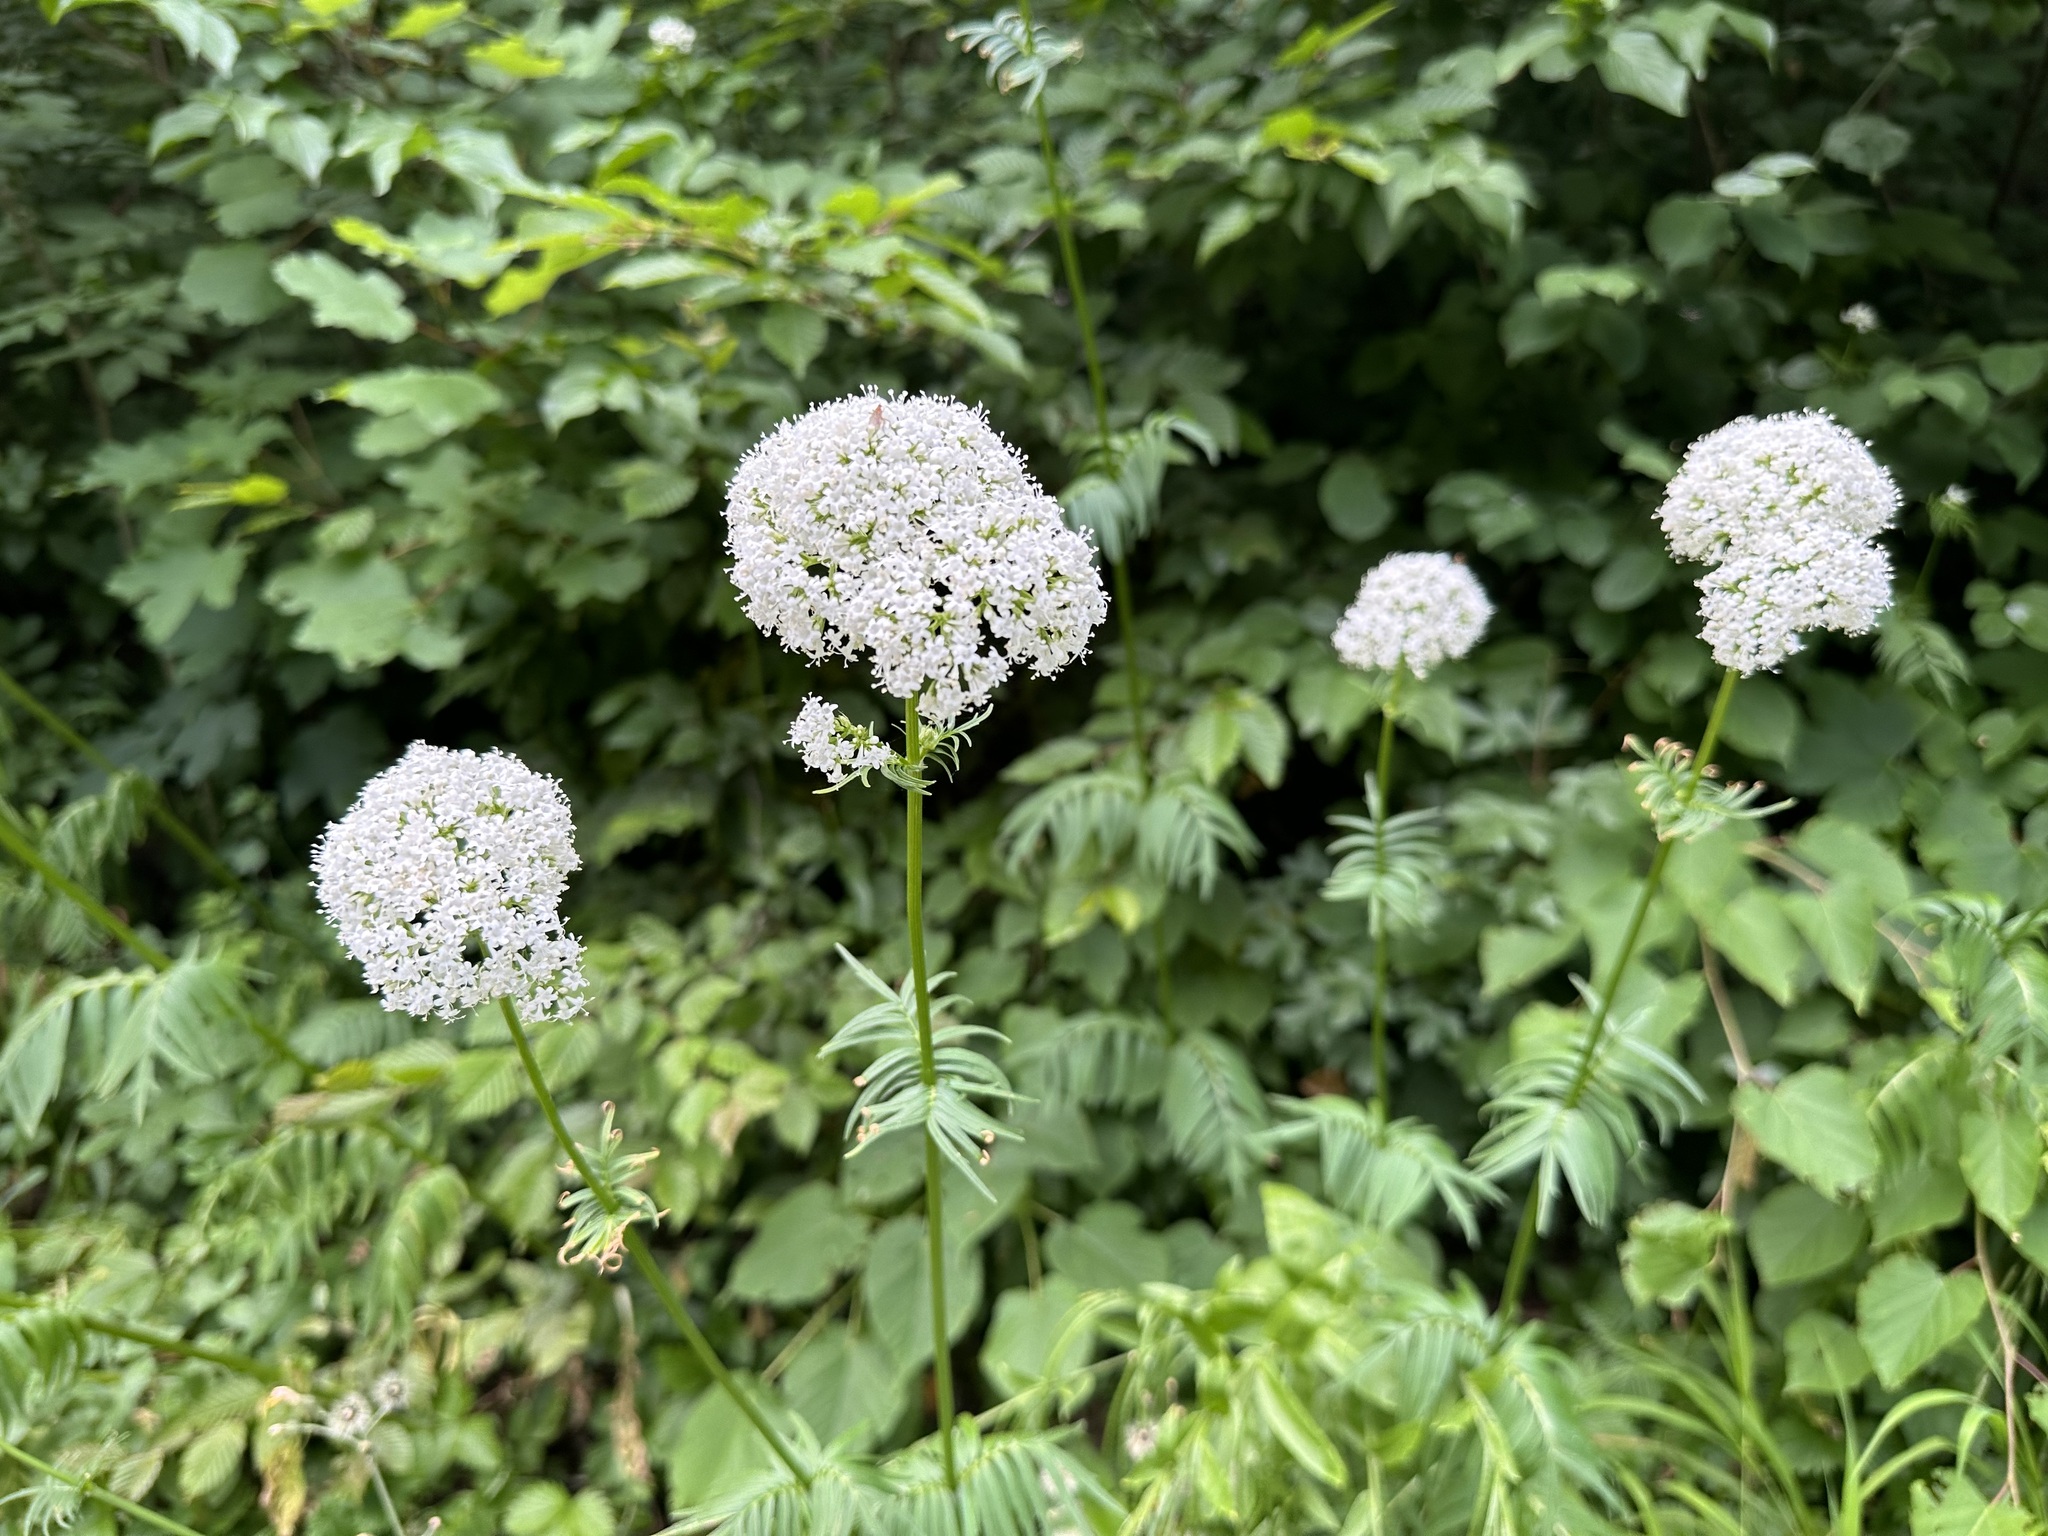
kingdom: Plantae
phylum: Tracheophyta
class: Magnoliopsida
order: Dipsacales
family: Caprifoliaceae
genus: Valeriana
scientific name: Valeriana officinalis
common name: Common valerian
